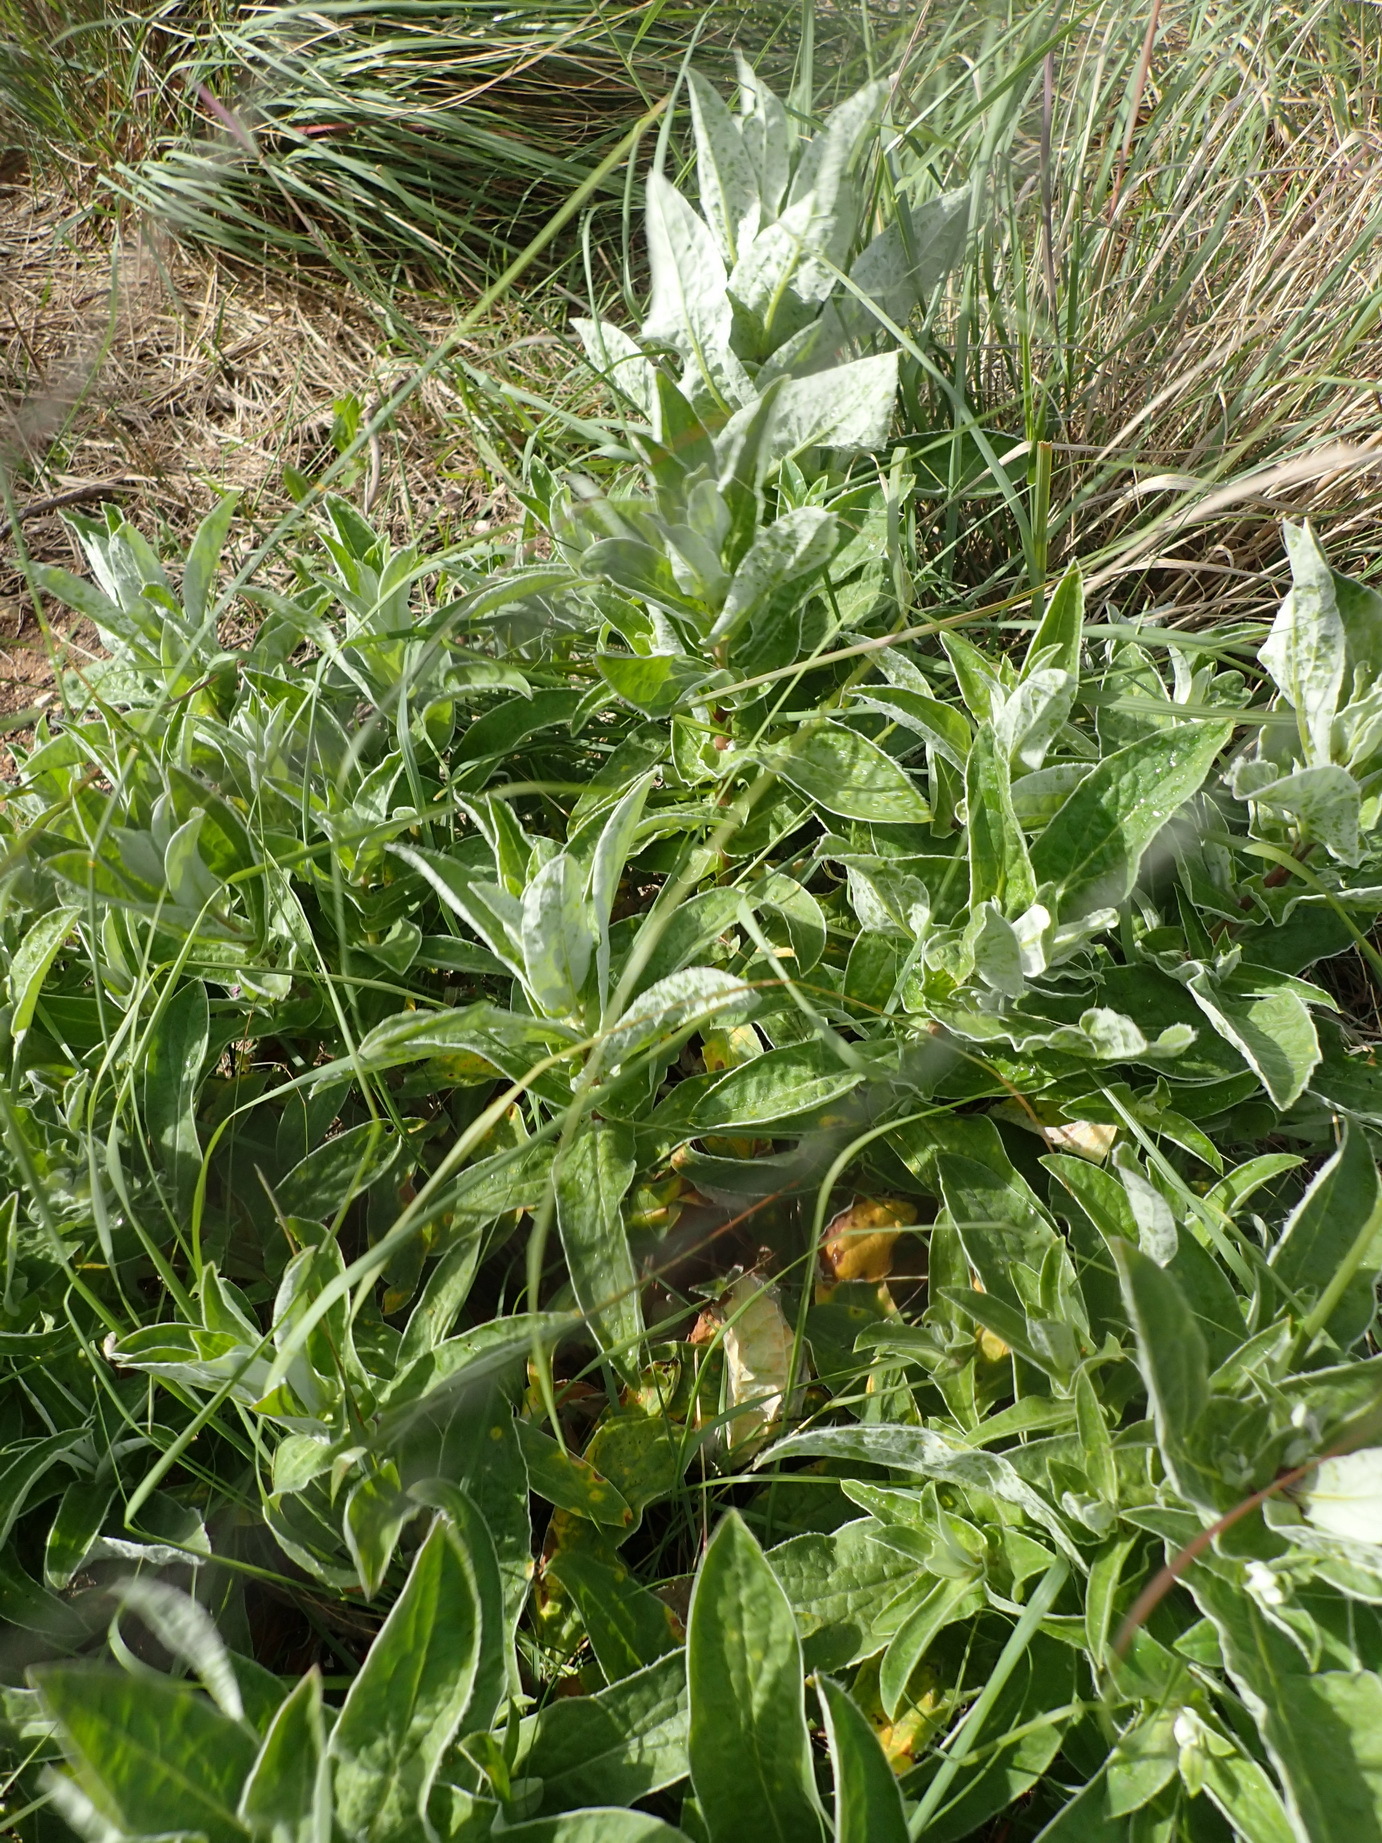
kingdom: Plantae
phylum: Tracheophyta
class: Magnoliopsida
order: Asterales
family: Asteraceae
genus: Helichrysum
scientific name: Helichrysum foetidum
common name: Stinking everlasting
